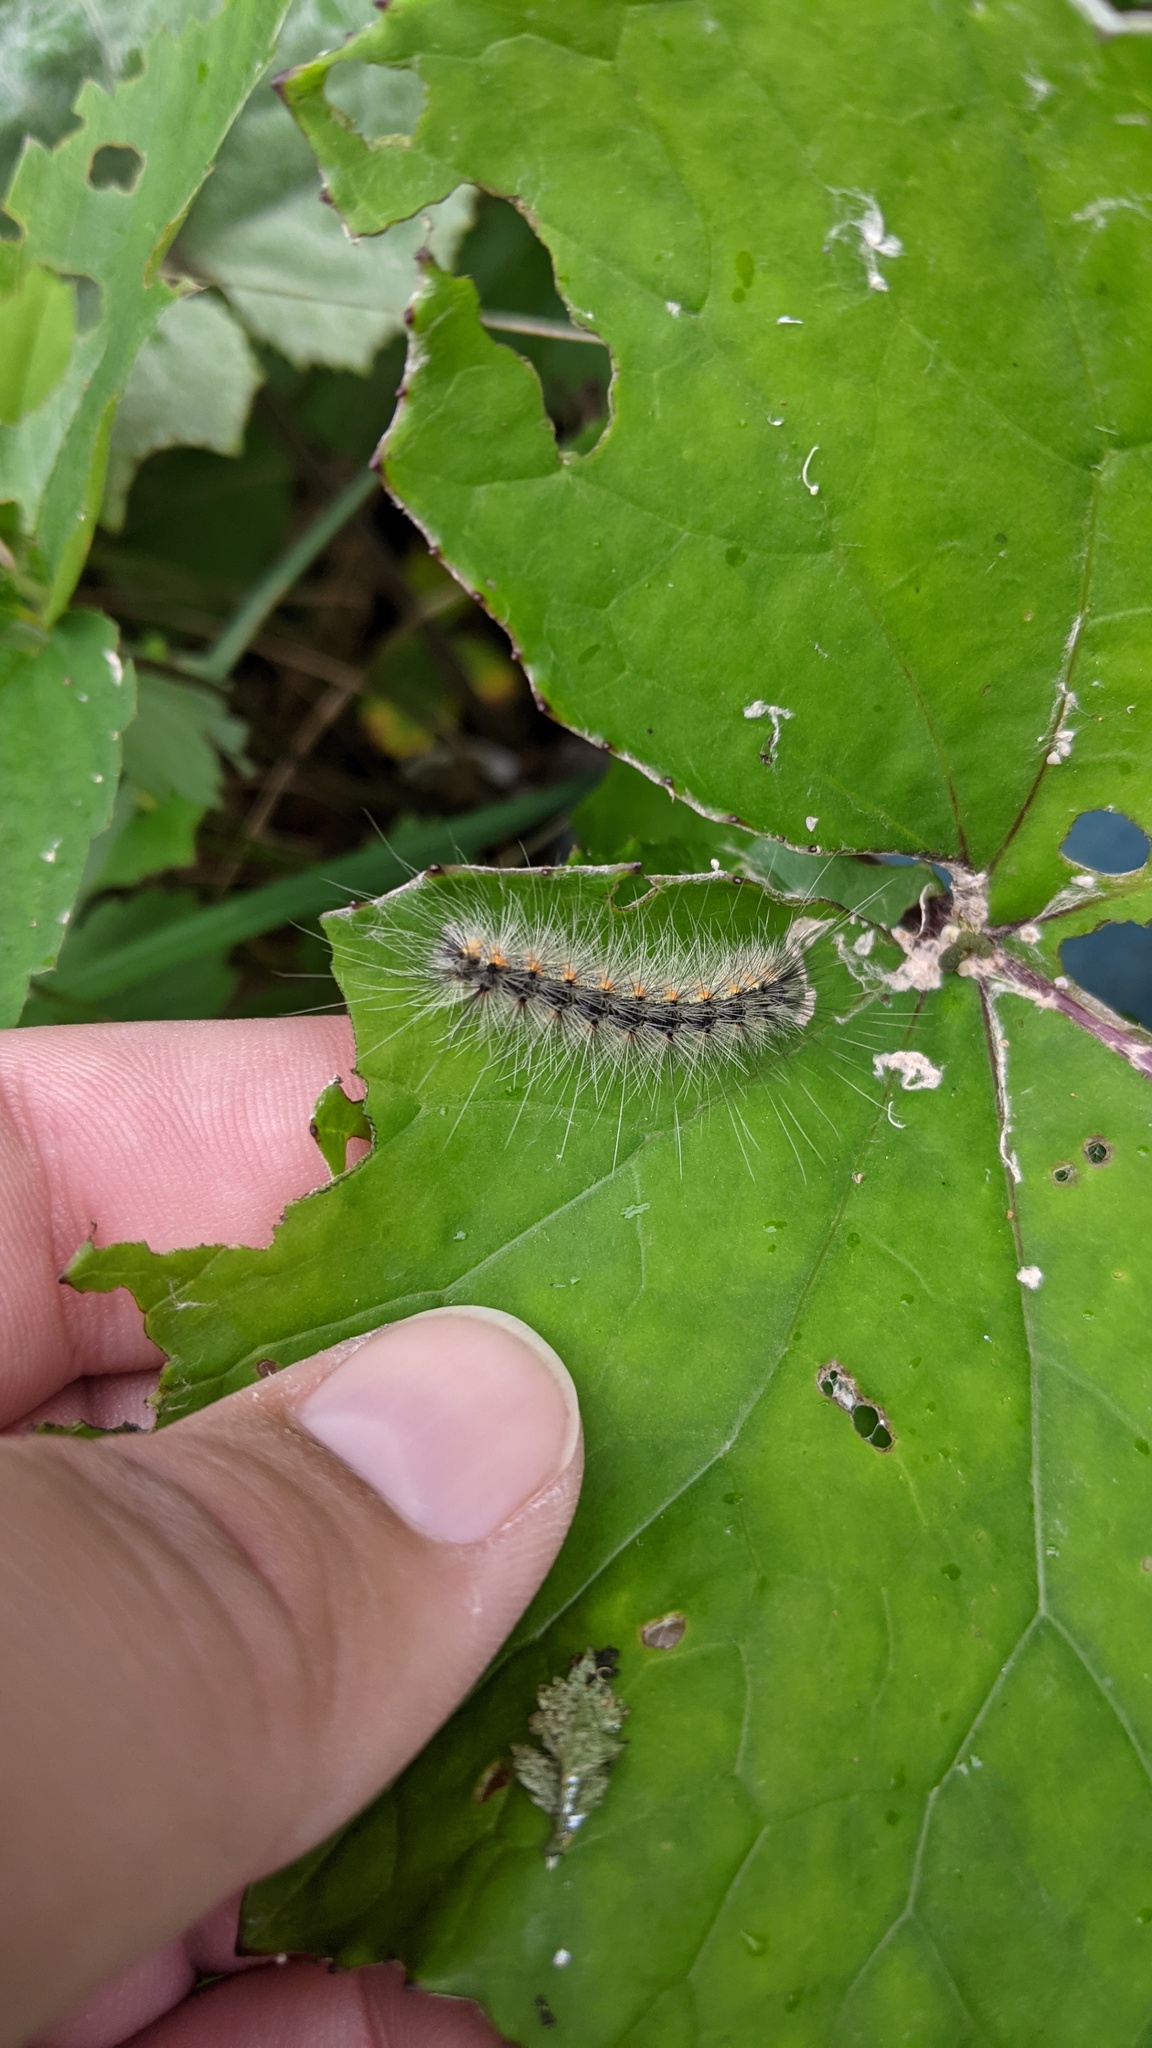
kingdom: Animalia
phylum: Arthropoda
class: Insecta
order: Lepidoptera
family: Erebidae
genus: Hyphantria
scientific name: Hyphantria cunea
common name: American white moth
